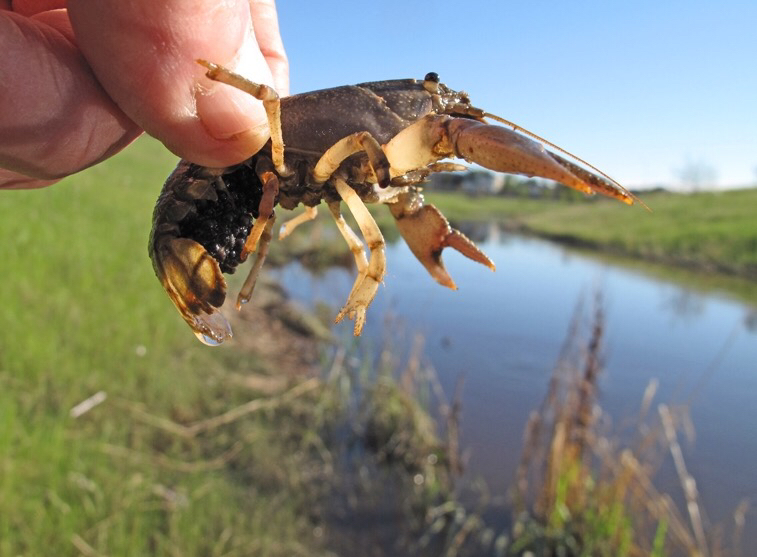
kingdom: Animalia
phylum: Arthropoda
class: Malacostraca
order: Decapoda
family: Cambaridae
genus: Faxonius
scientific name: Faxonius virilis
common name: Virile crayfish
